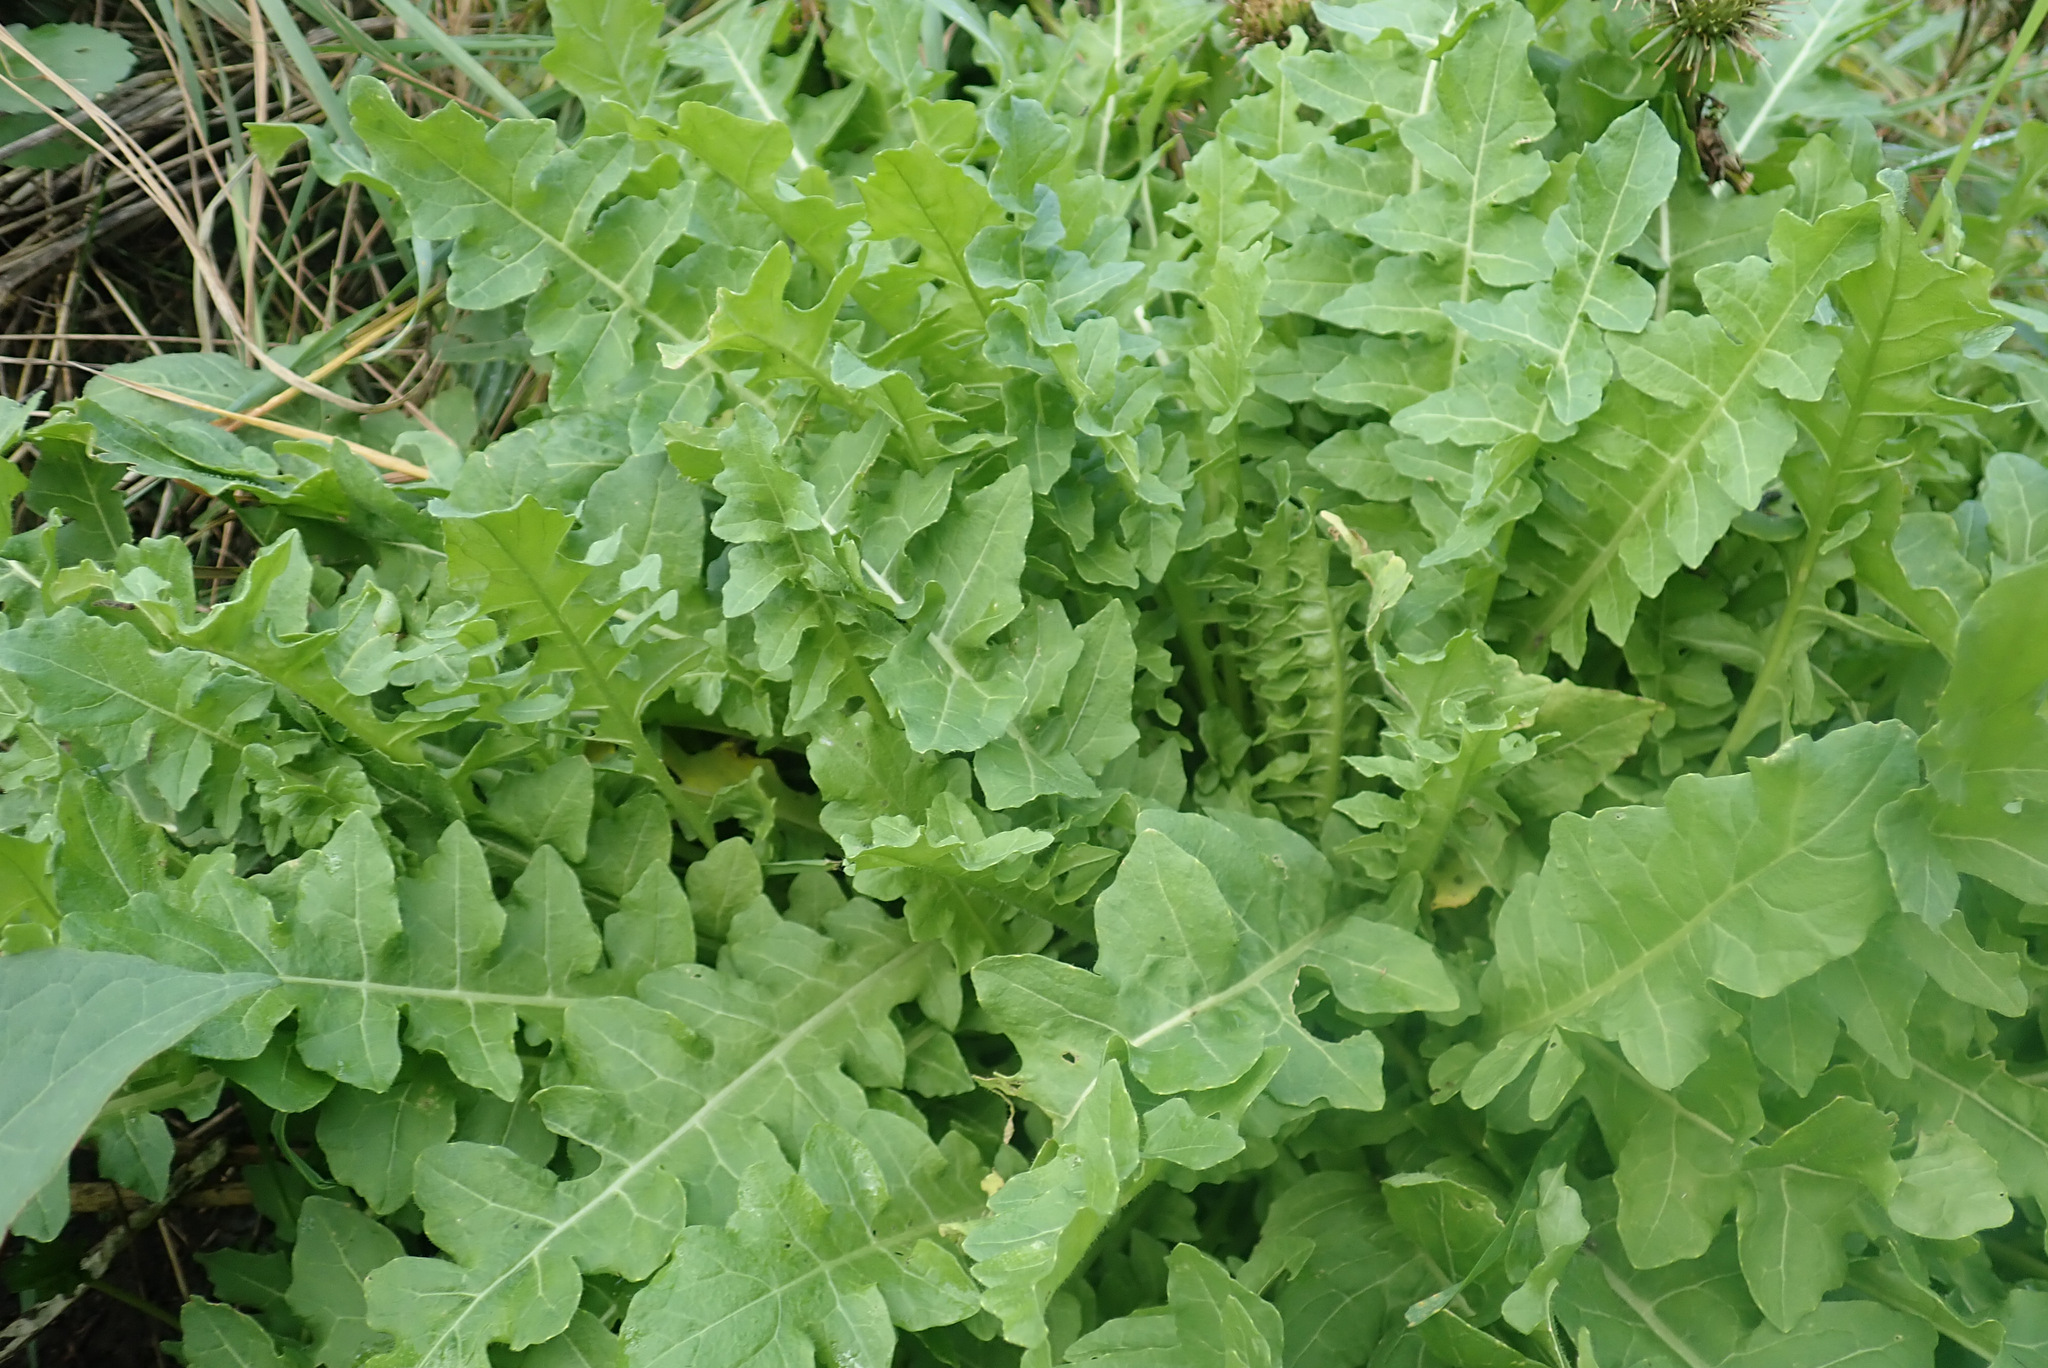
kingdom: Plantae
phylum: Tracheophyta
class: Magnoliopsida
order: Brassicales
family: Brassicaceae
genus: Sisymbrium
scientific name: Sisymbrium chrysanthum
